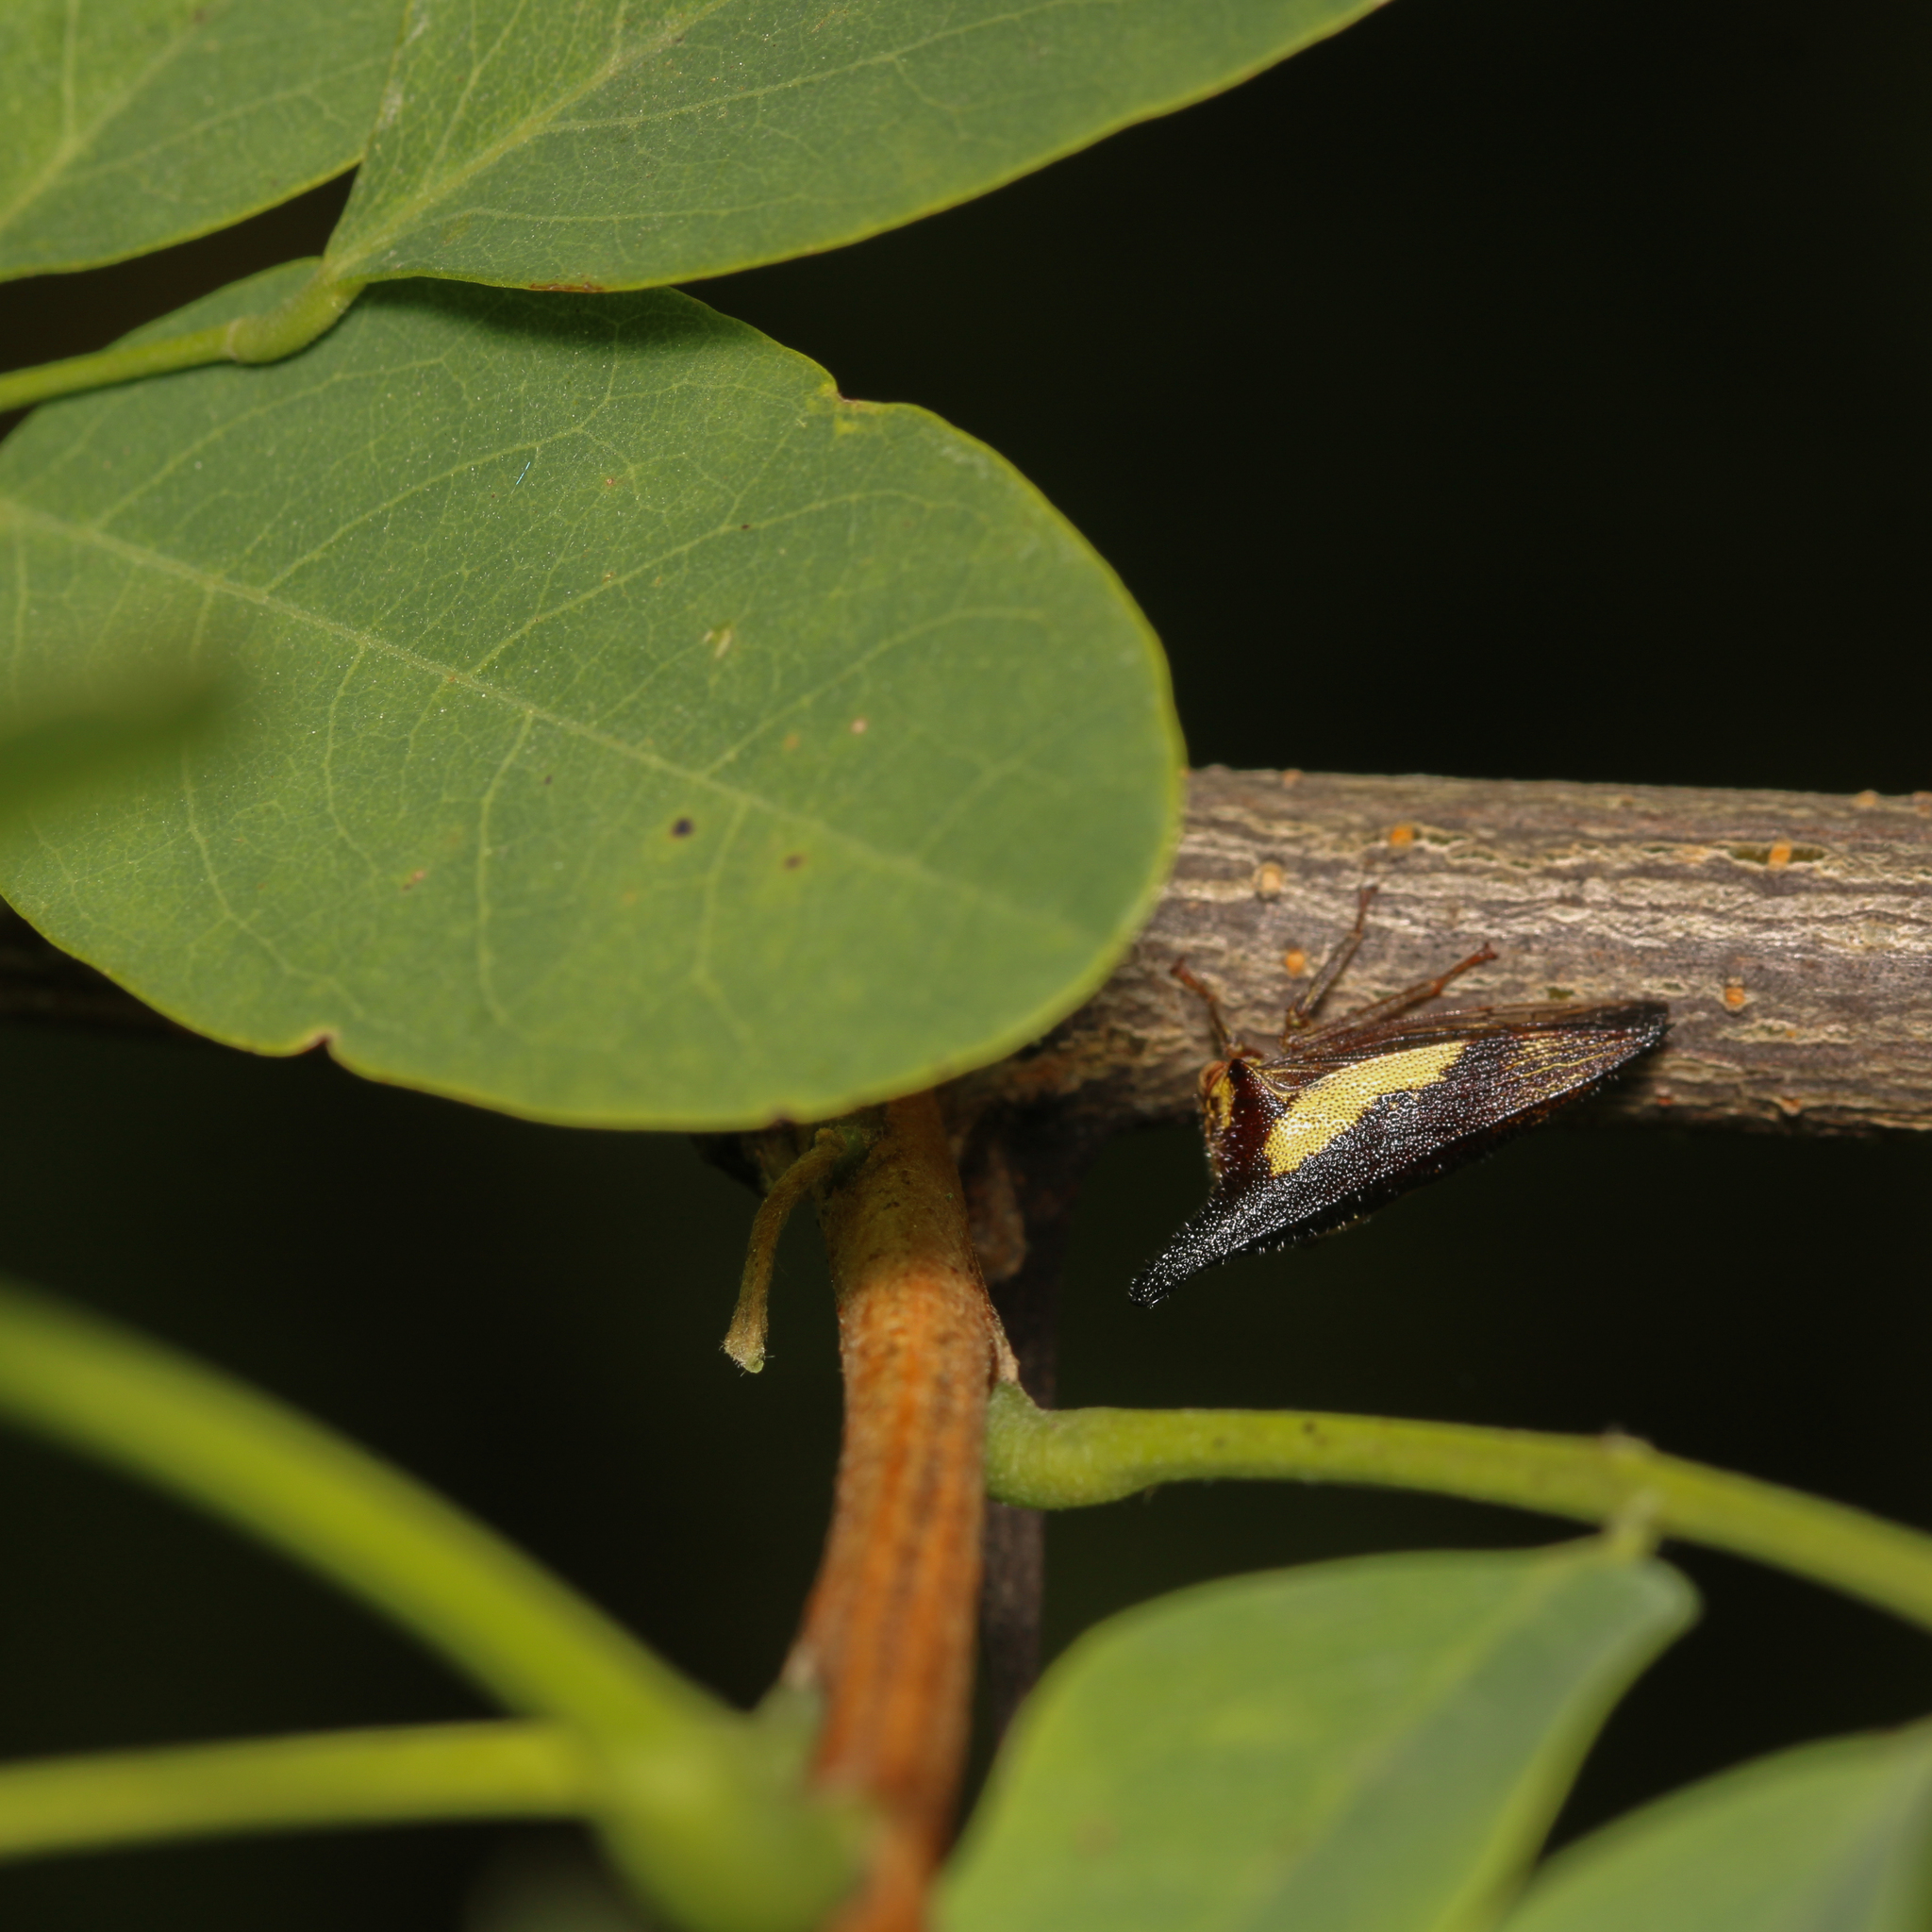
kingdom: Animalia
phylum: Arthropoda
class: Insecta
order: Hemiptera
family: Membracidae
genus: Thelia
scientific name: Thelia bimaculata
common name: Locust treehopper
